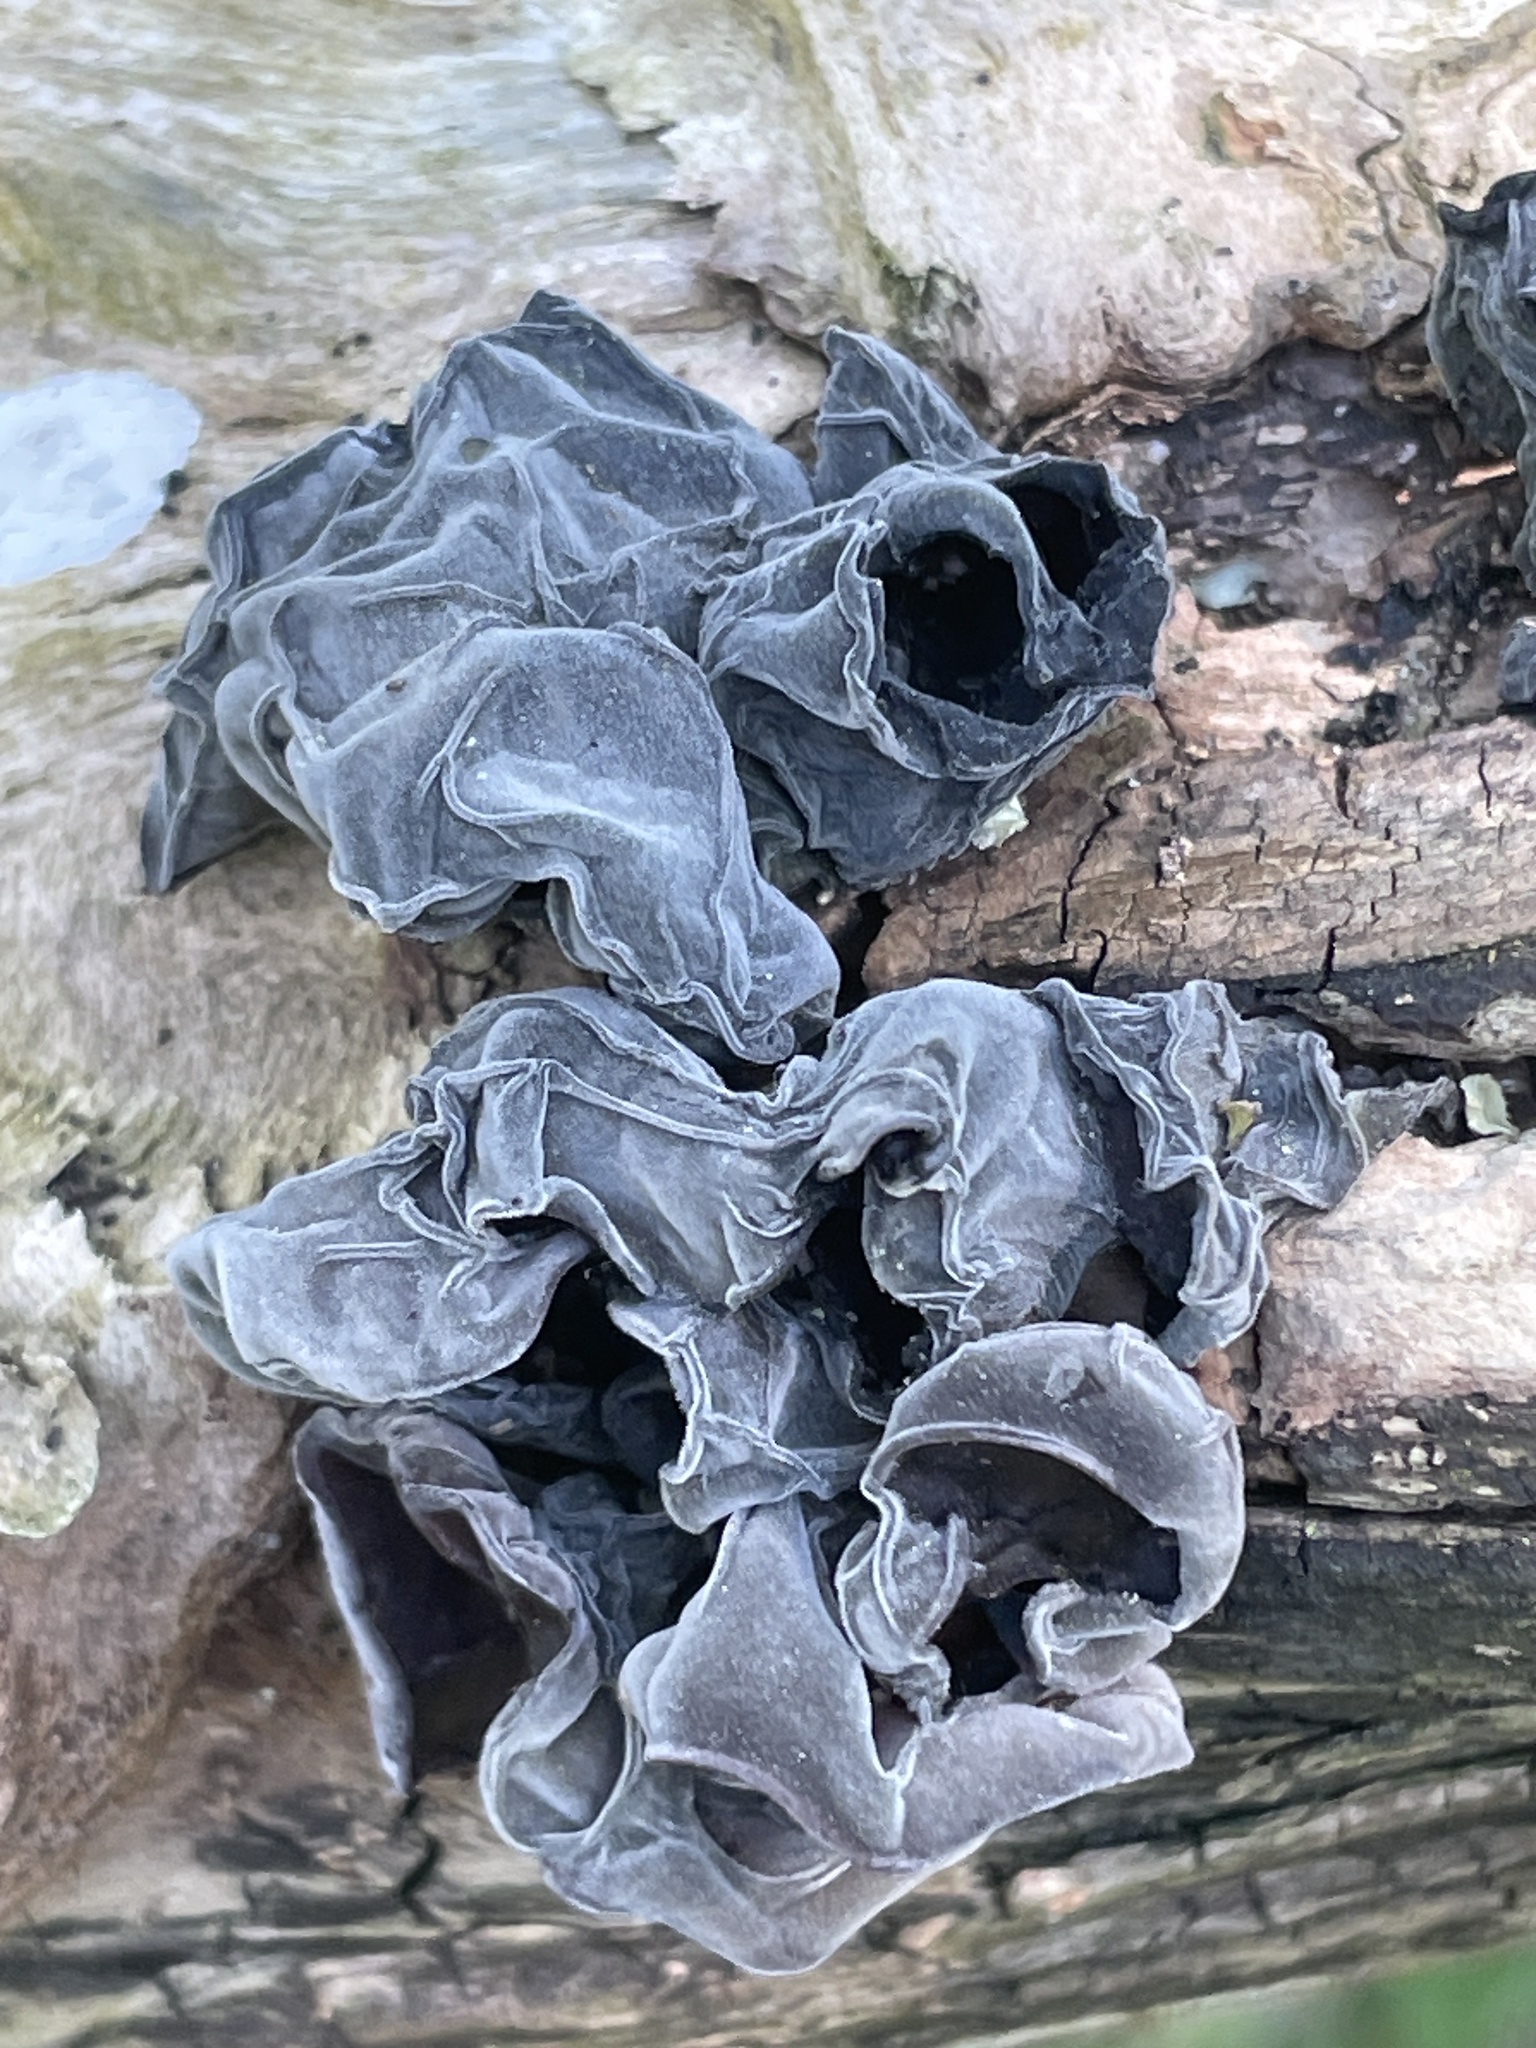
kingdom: Fungi
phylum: Basidiomycota
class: Agaricomycetes
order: Auriculariales
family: Auriculariaceae
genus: Auricularia
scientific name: Auricularia auricula-judae
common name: Jelly ear
